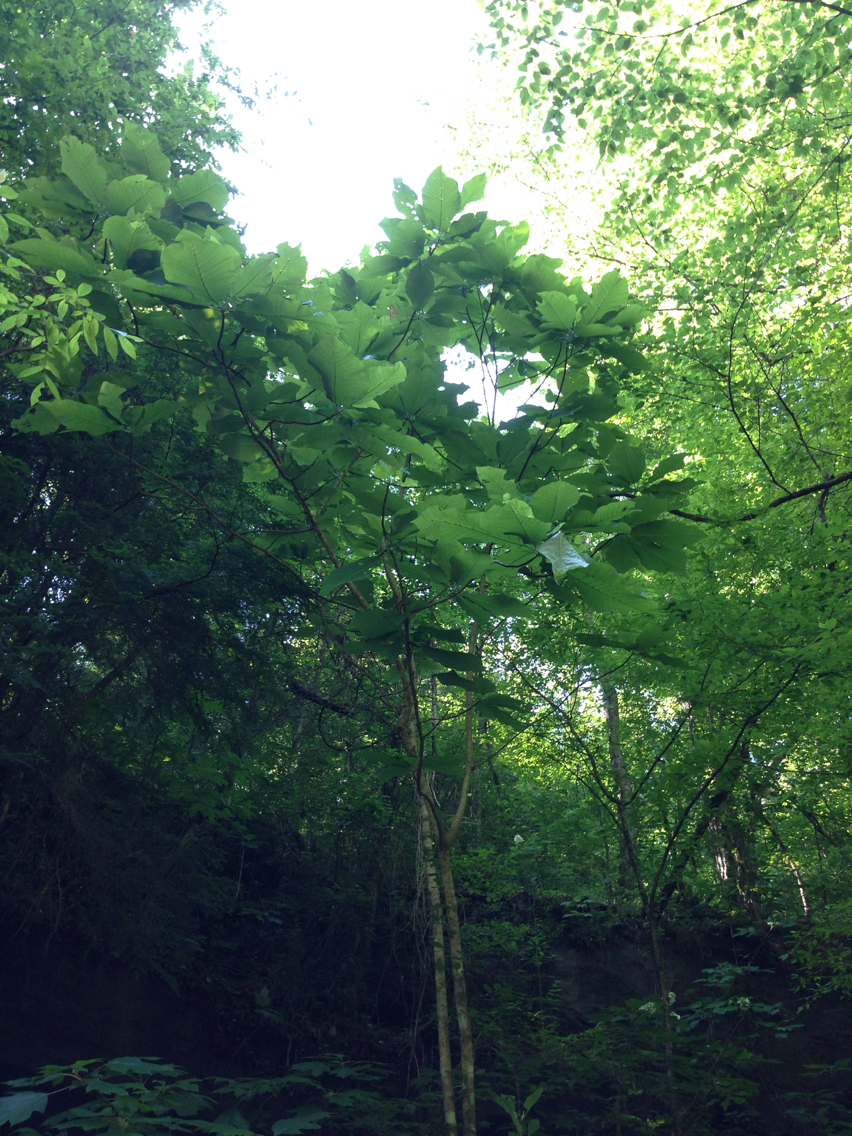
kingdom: Plantae
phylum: Tracheophyta
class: Magnoliopsida
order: Magnoliales
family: Magnoliaceae
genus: Magnolia
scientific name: Magnolia macrophylla
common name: Big-leaf magnolia
